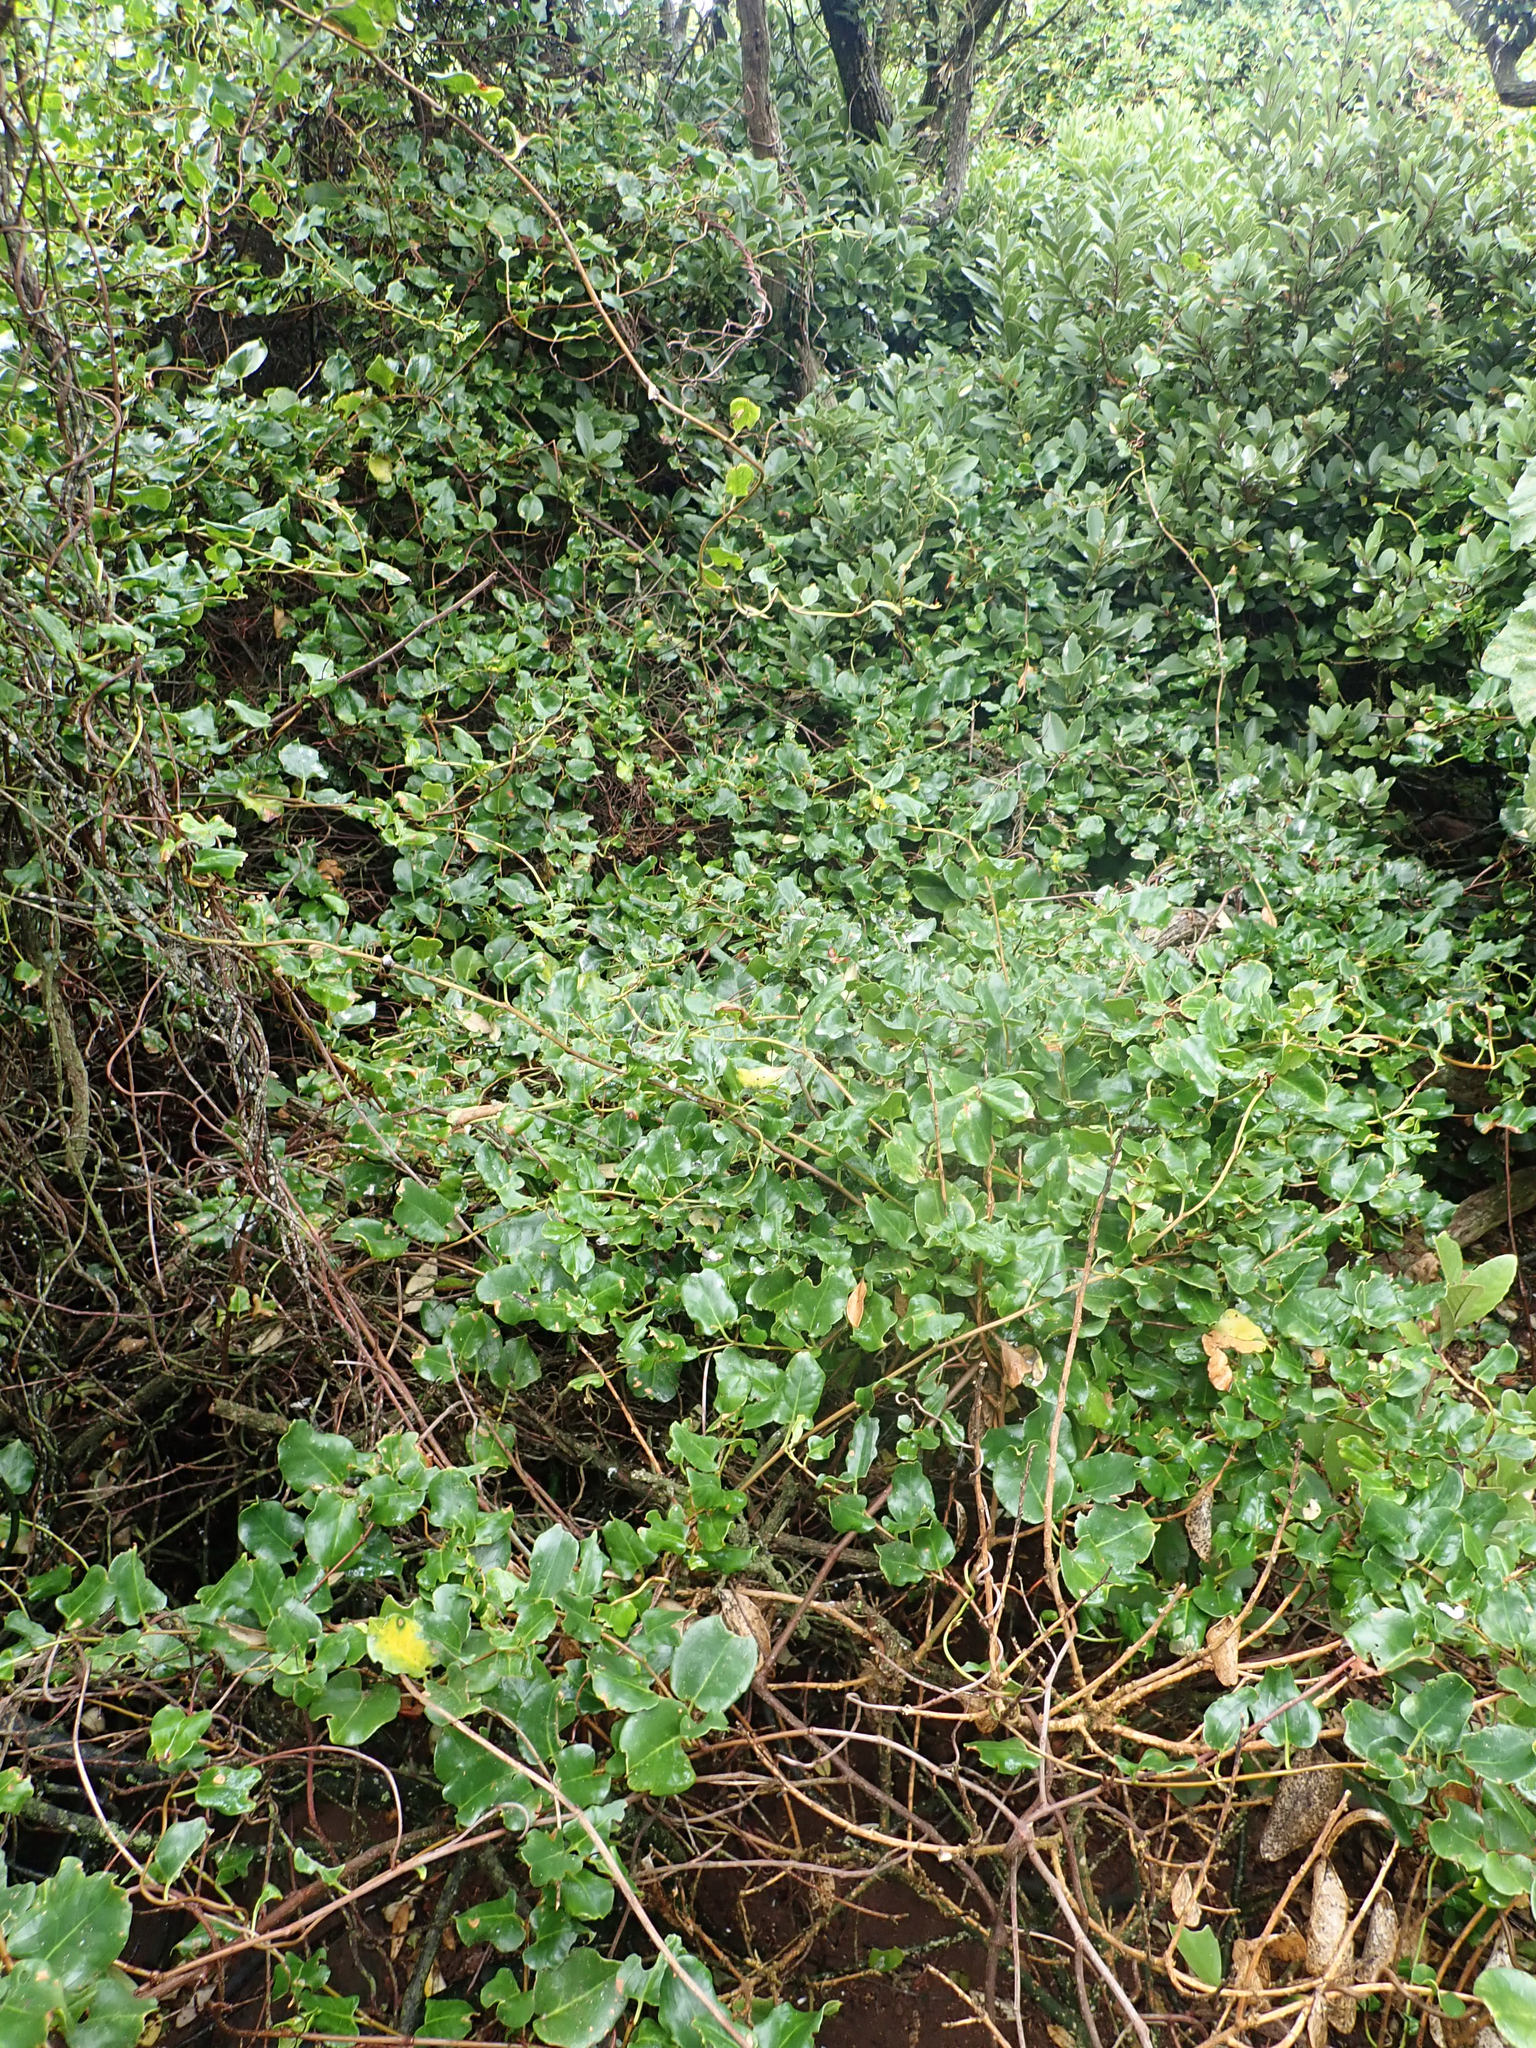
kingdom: Plantae
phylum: Tracheophyta
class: Magnoliopsida
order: Caryophyllales
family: Polygonaceae
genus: Muehlenbeckia
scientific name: Muehlenbeckia australis
